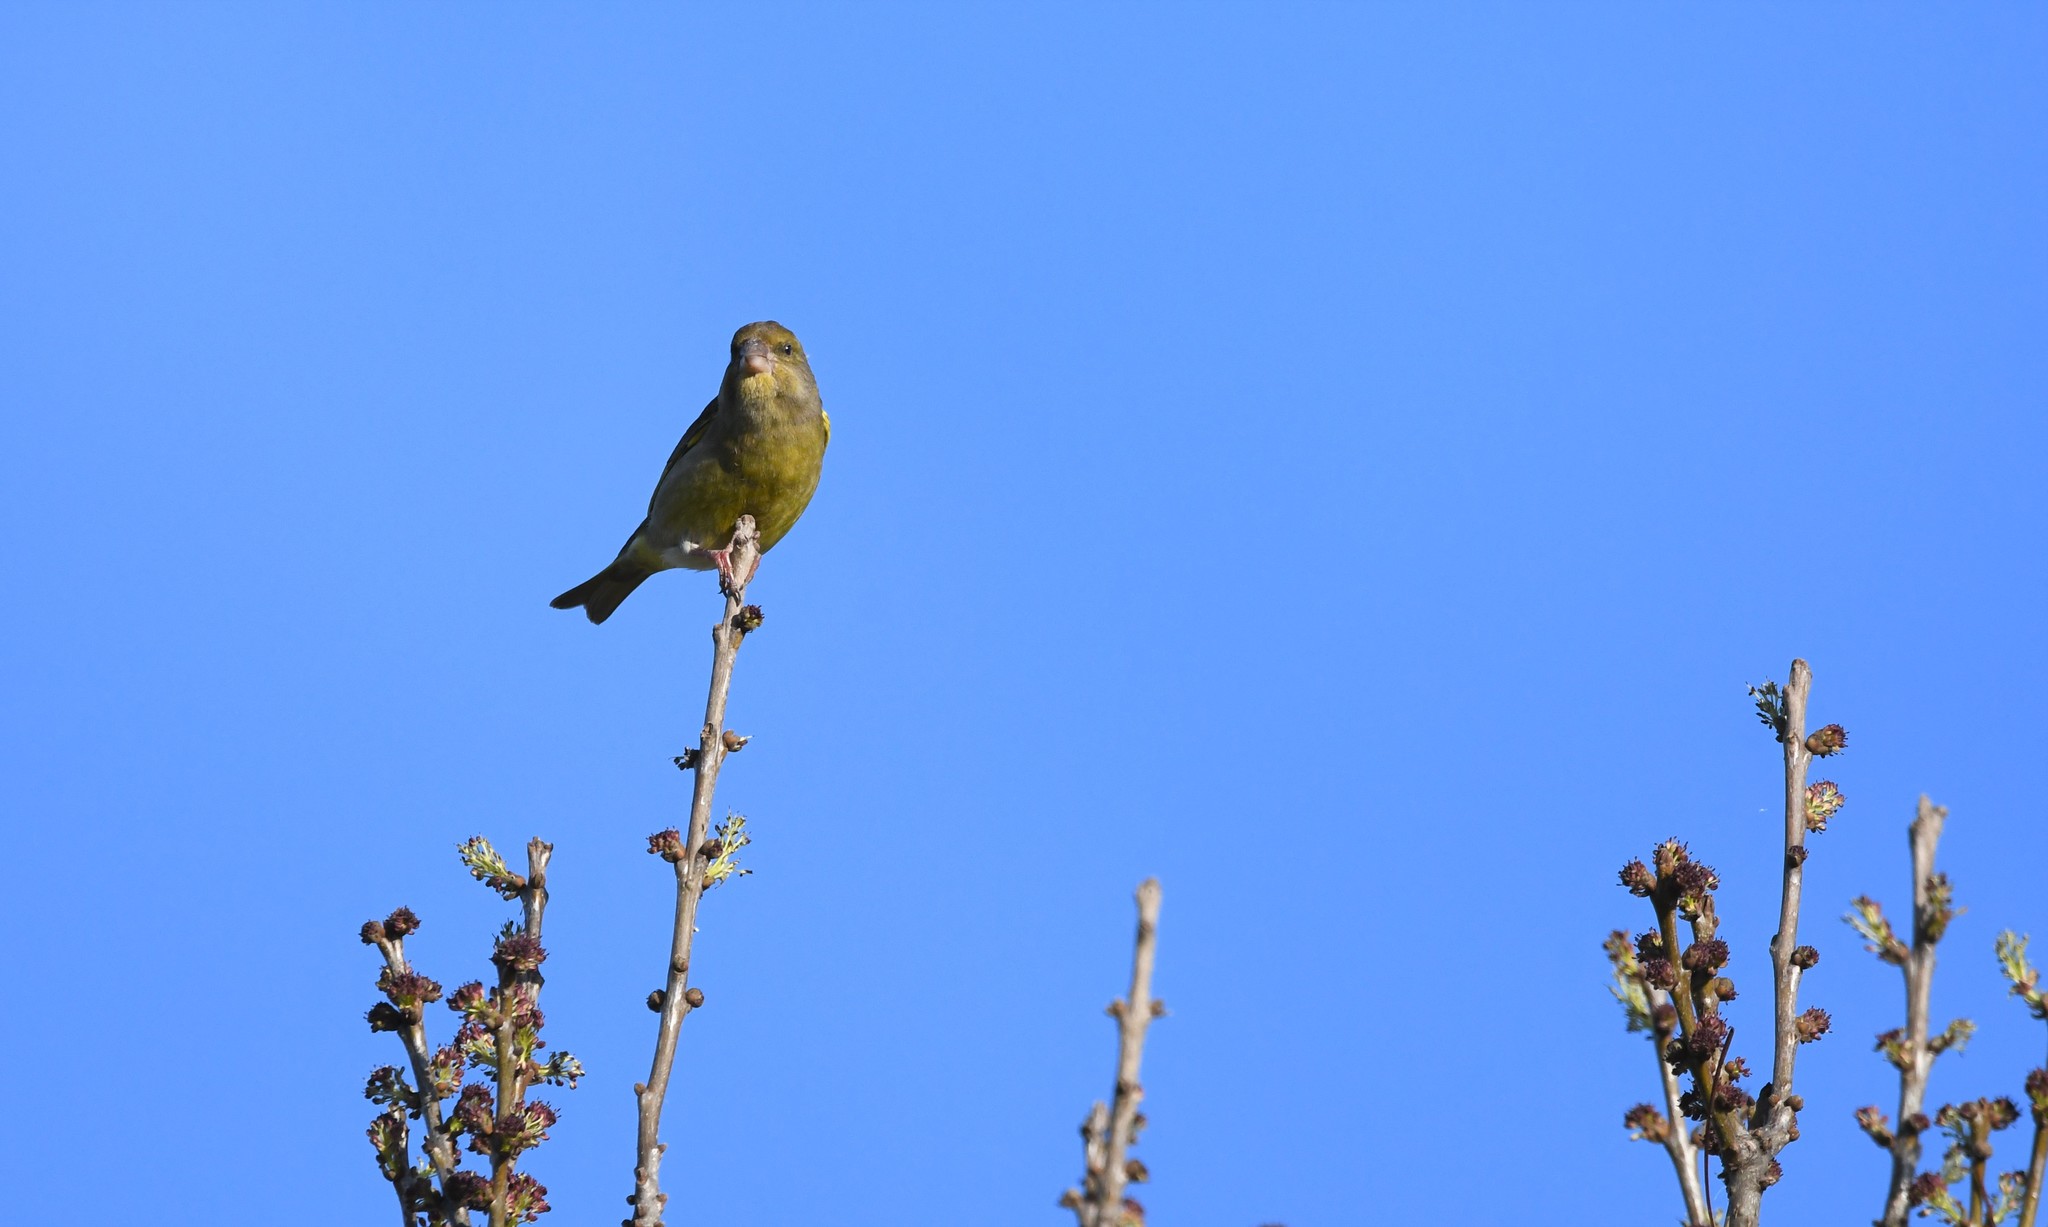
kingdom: Plantae
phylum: Tracheophyta
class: Liliopsida
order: Poales
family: Poaceae
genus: Chloris
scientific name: Chloris chloris
